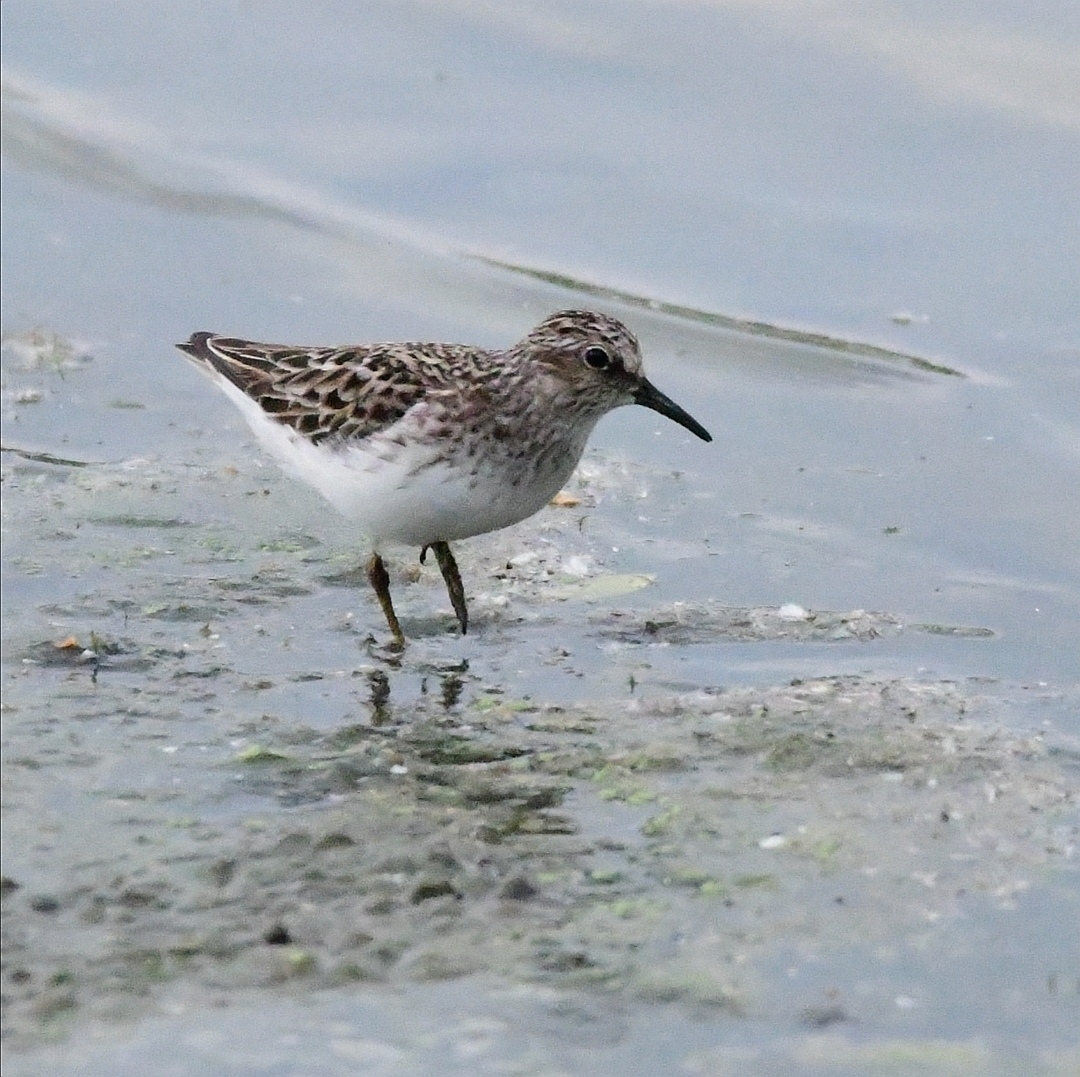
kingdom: Animalia
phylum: Chordata
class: Aves
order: Charadriiformes
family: Scolopacidae
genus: Calidris
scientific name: Calidris minutilla
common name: Least sandpiper
